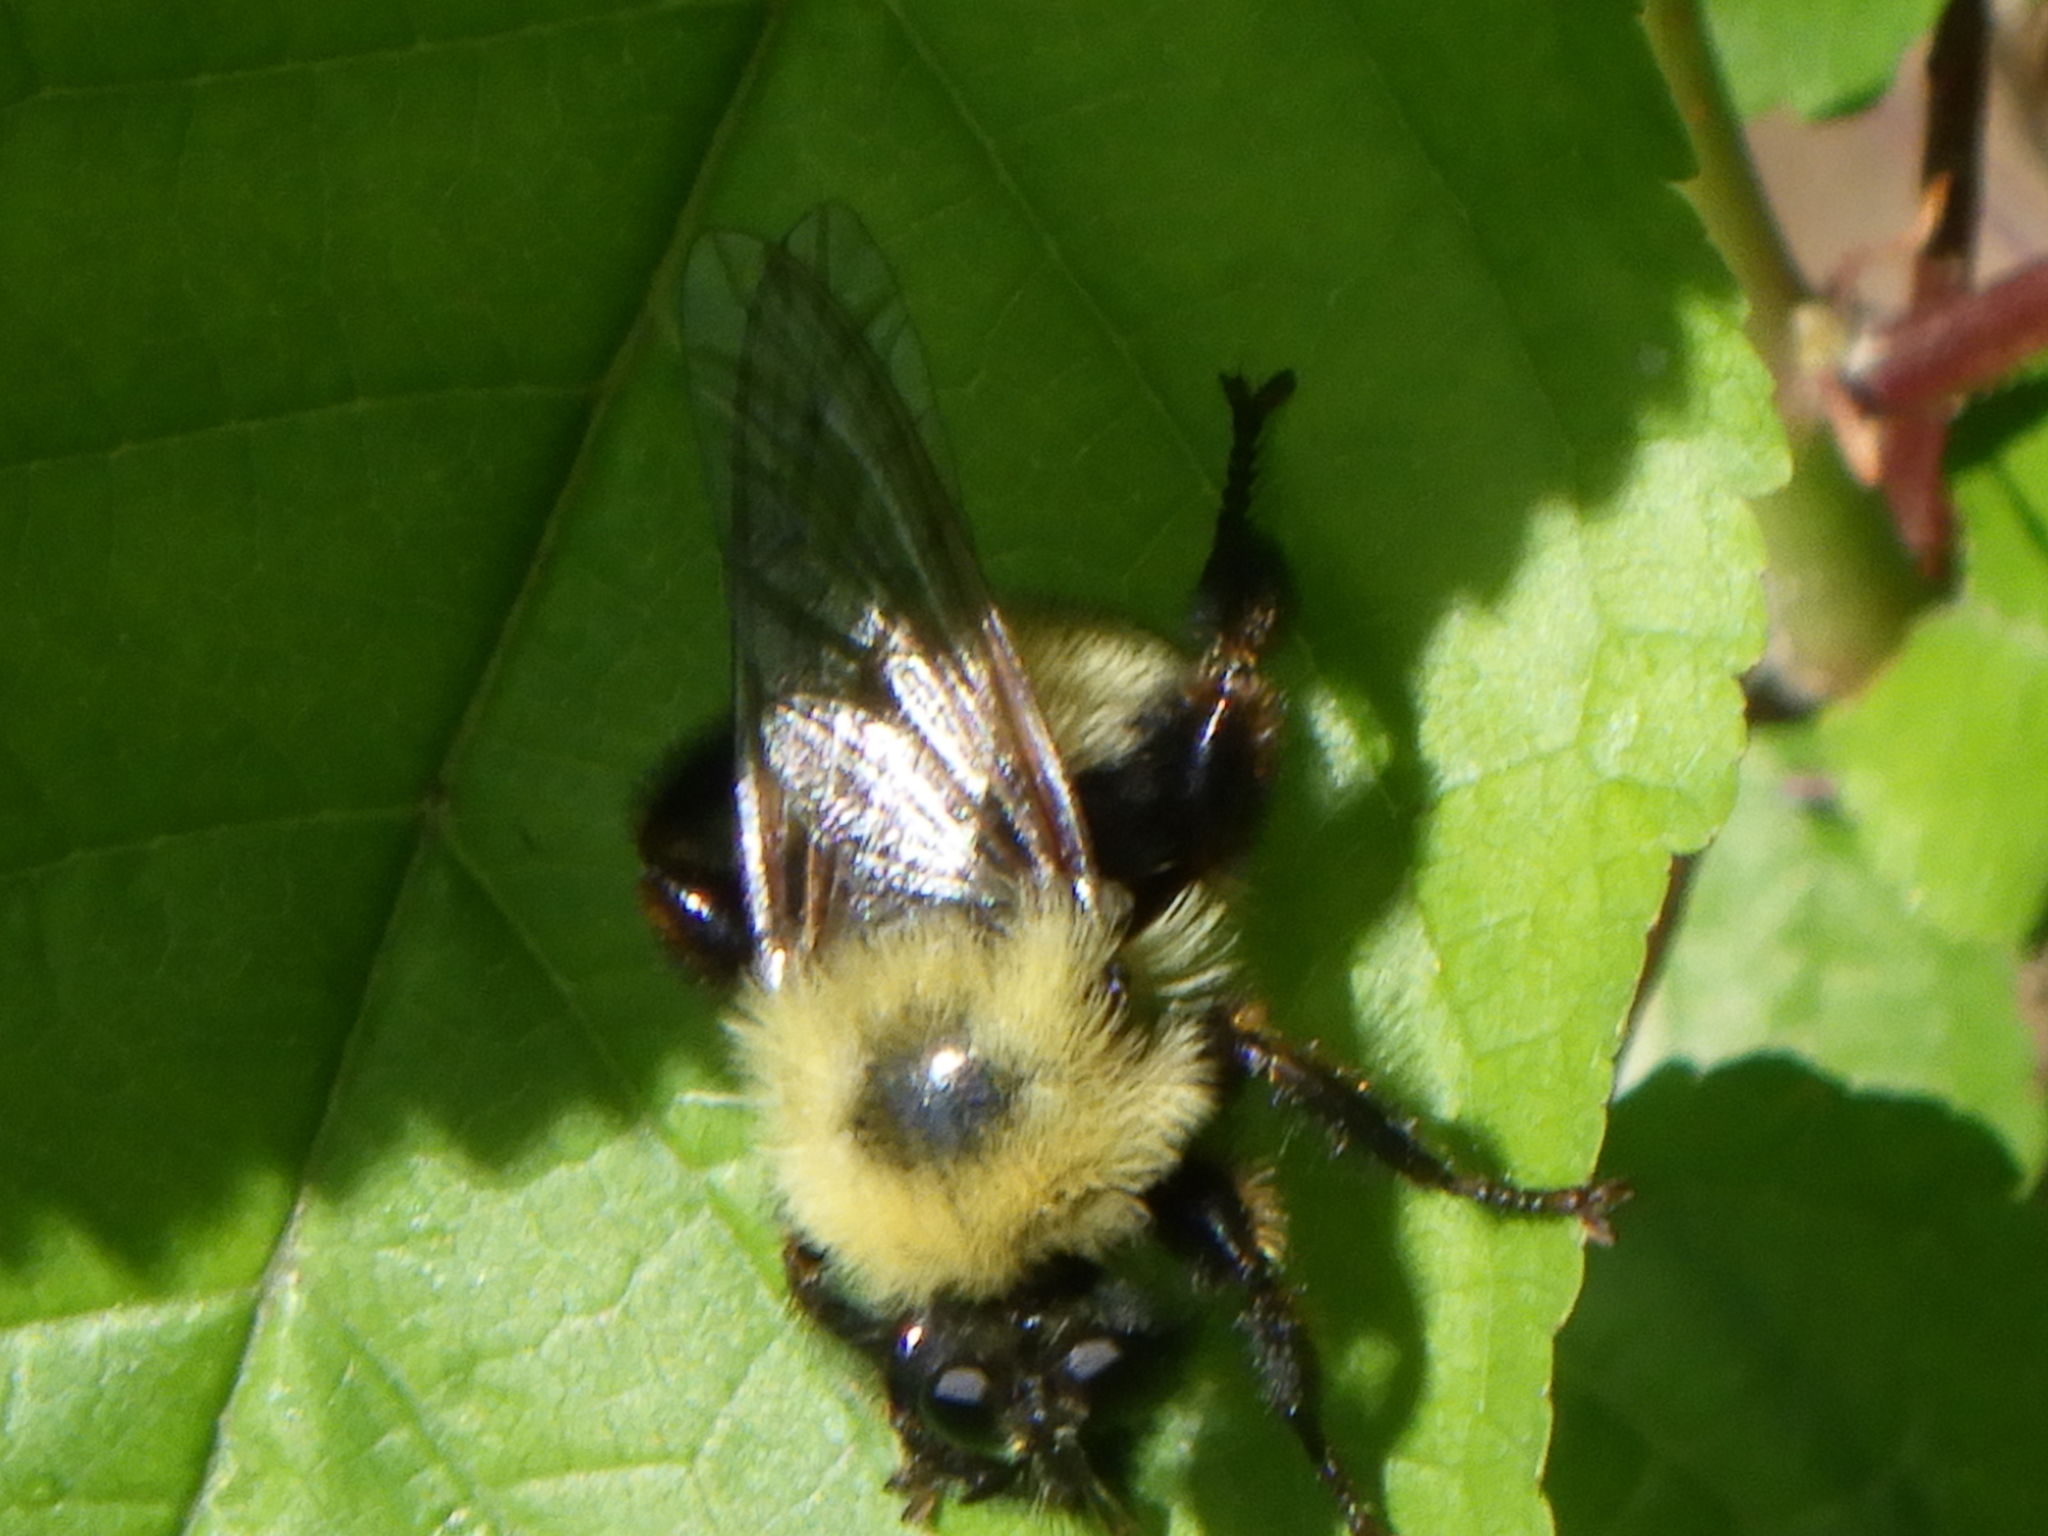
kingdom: Animalia
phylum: Arthropoda
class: Insecta
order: Diptera
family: Asilidae
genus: Laphria
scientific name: Laphria thoracica
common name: Bumble bee mimic robber fly
